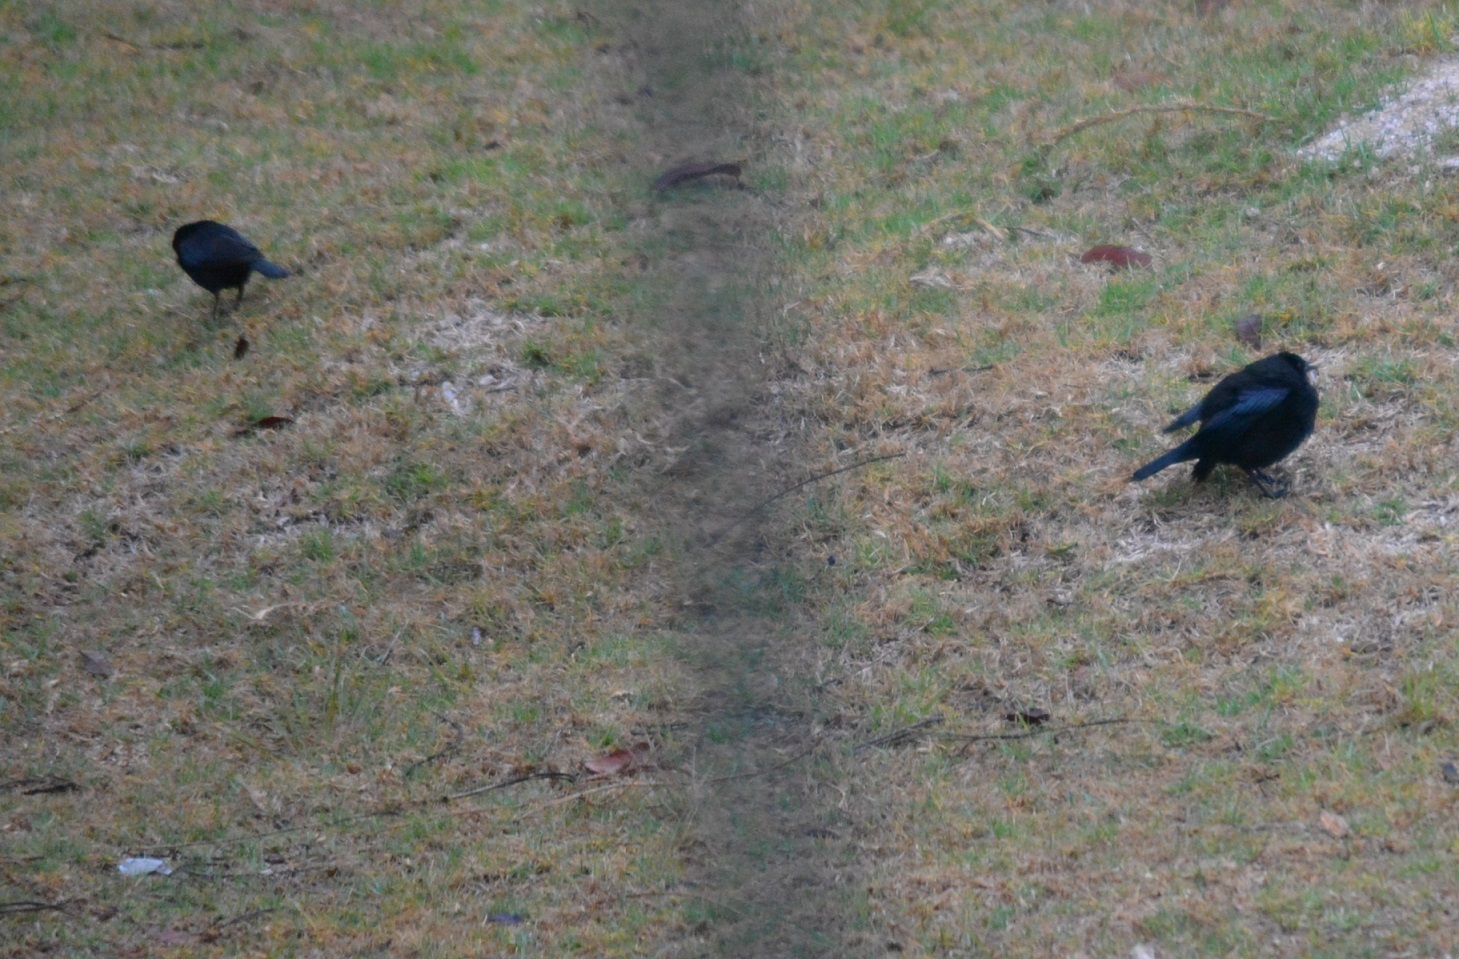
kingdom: Animalia
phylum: Chordata
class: Aves
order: Passeriformes
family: Icteridae
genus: Molothrus
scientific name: Molothrus aeneus
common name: Bronzed cowbird
